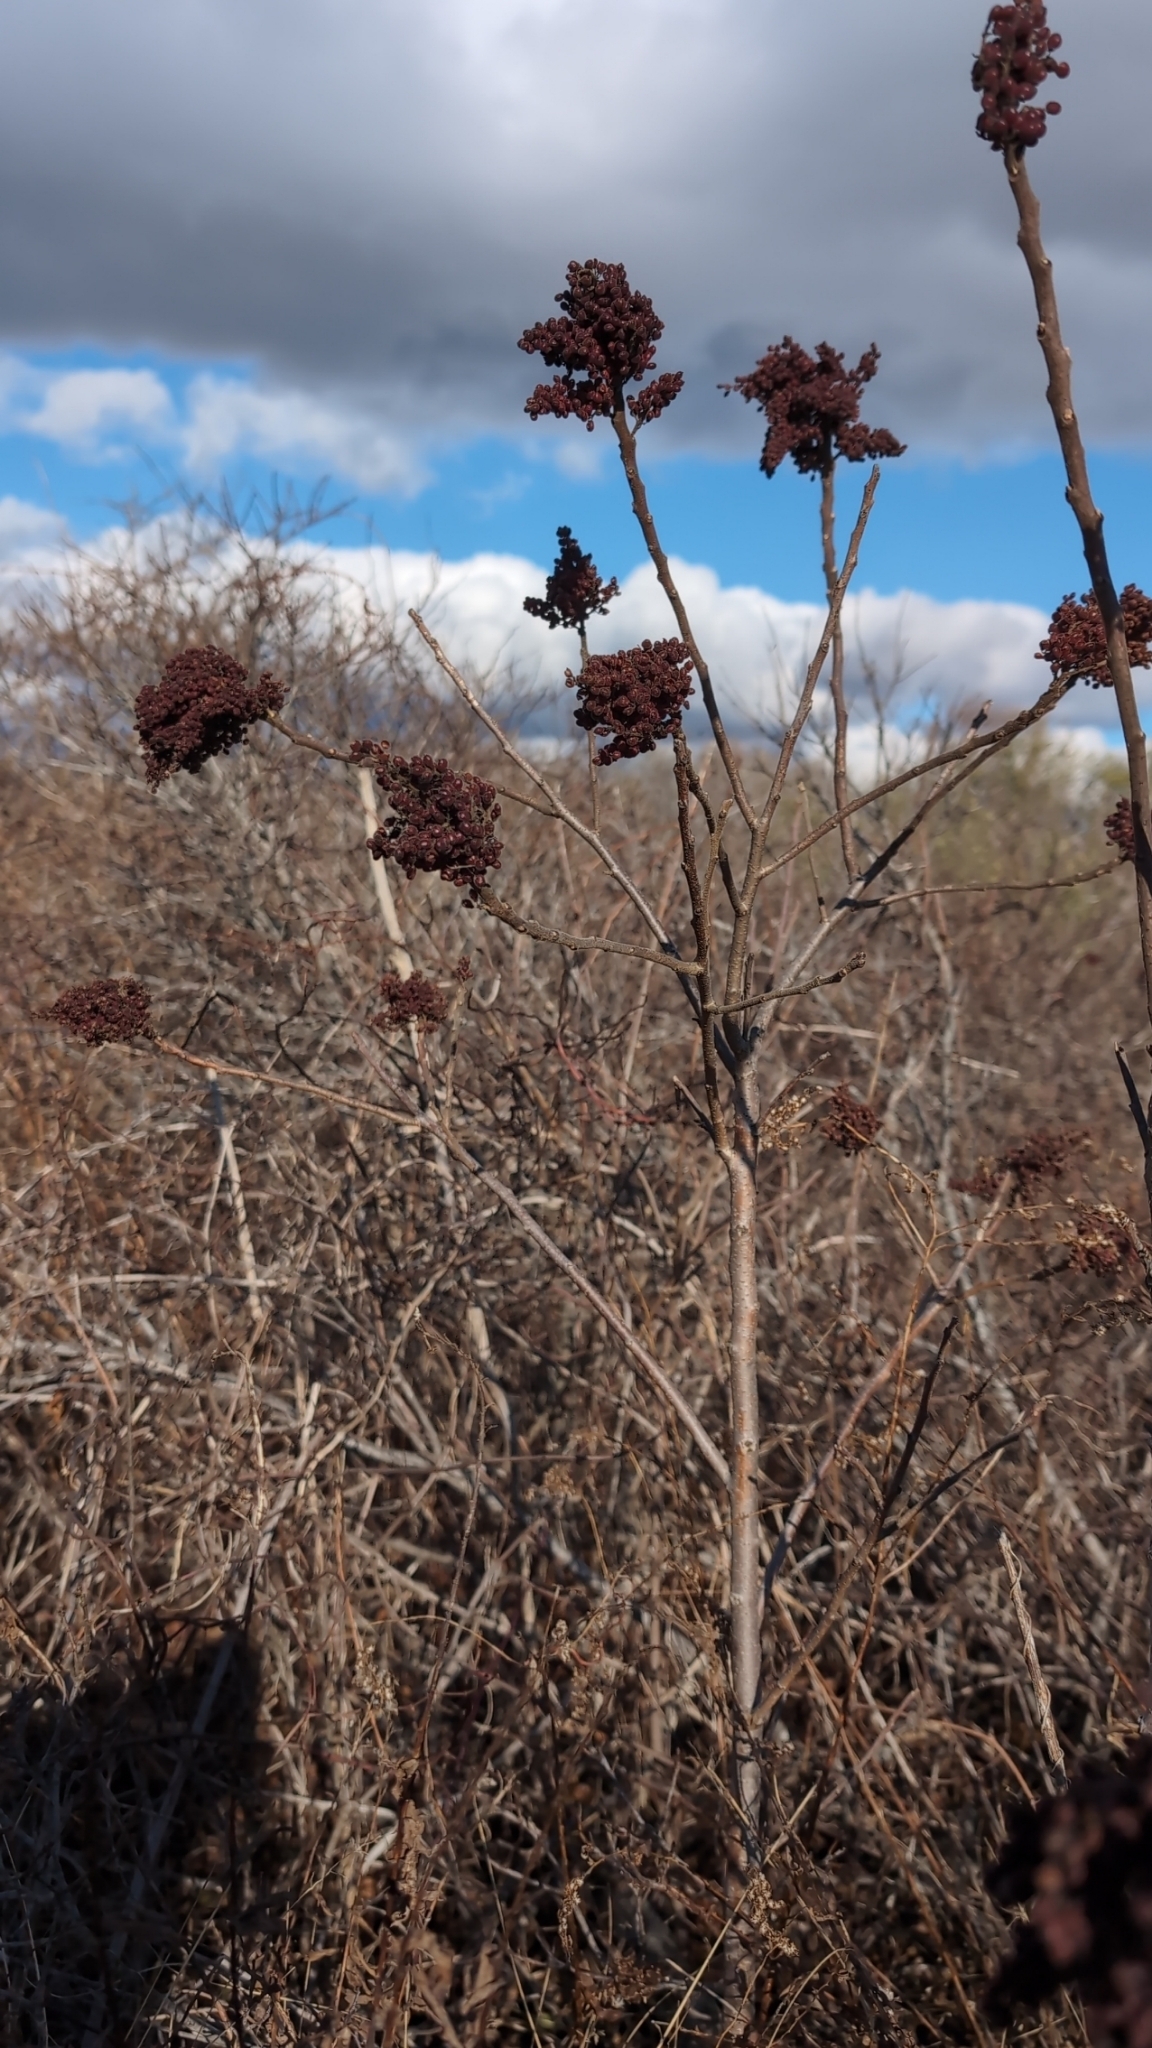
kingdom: Plantae
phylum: Tracheophyta
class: Magnoliopsida
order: Sapindales
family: Anacardiaceae
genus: Rhus
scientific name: Rhus copallina
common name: Shining sumac
